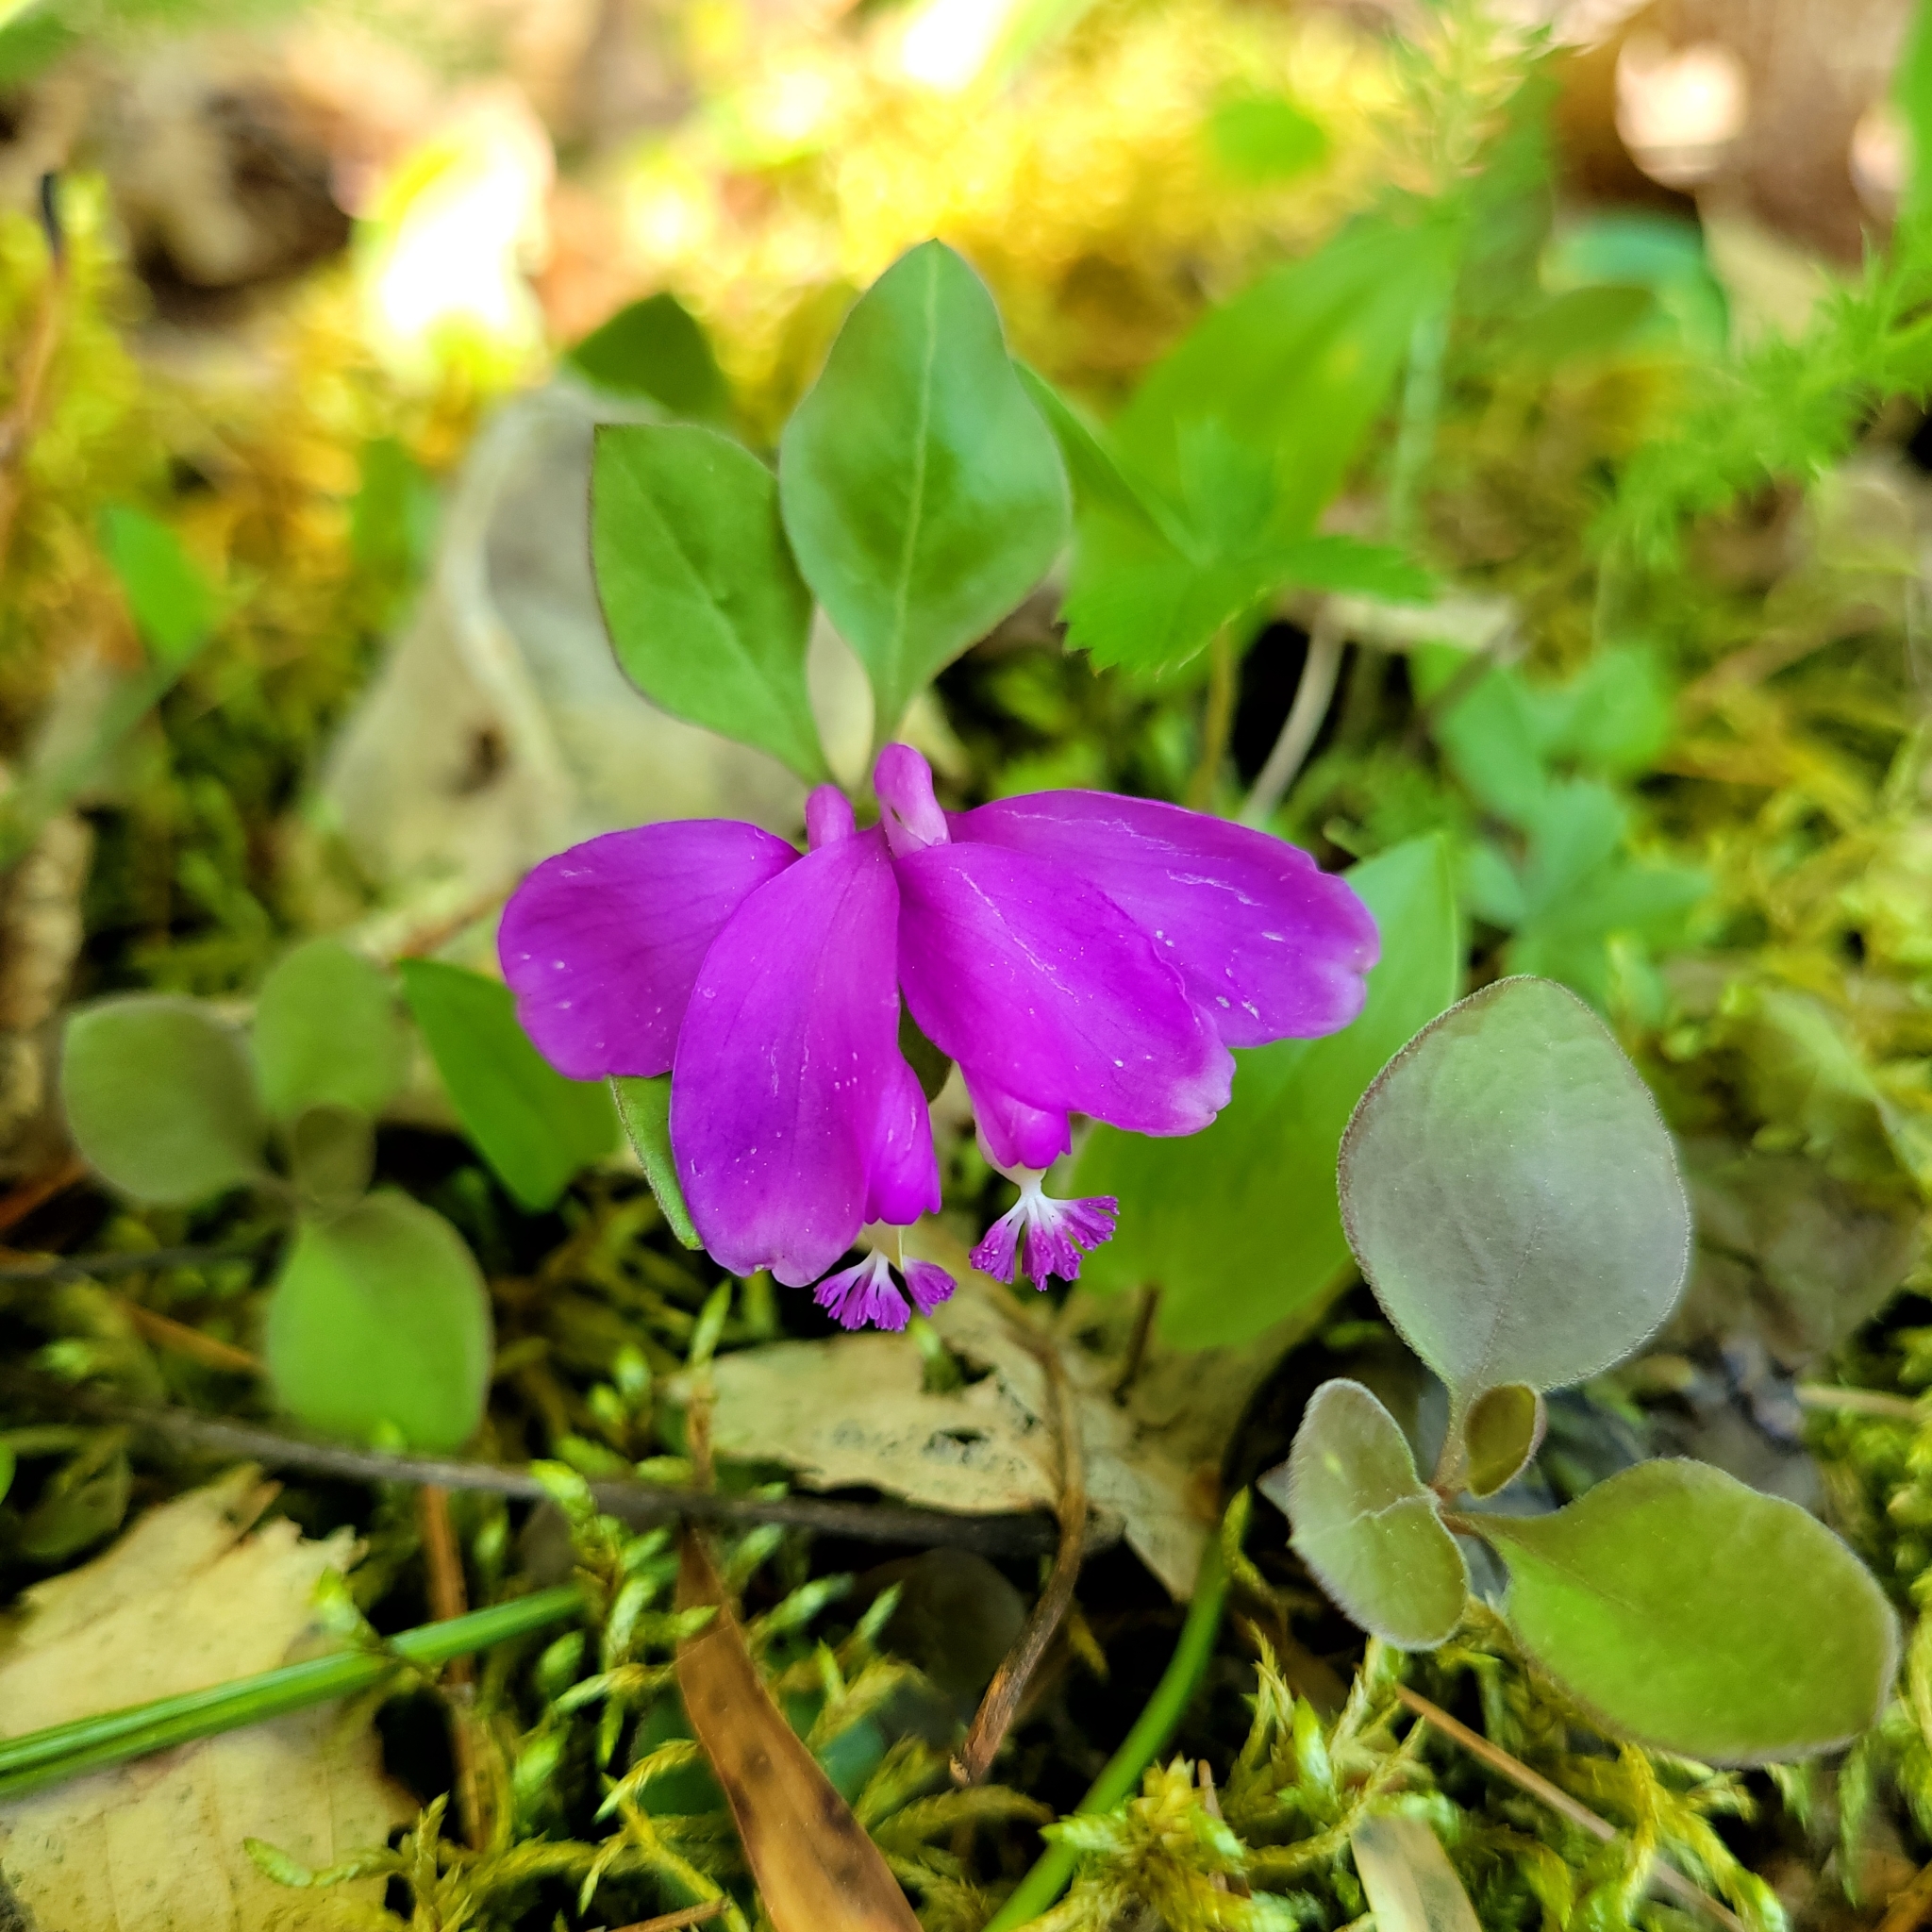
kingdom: Plantae
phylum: Tracheophyta
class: Magnoliopsida
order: Fabales
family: Polygalaceae
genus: Polygaloides
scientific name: Polygaloides paucifolia
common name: Bird-on-the-wing
